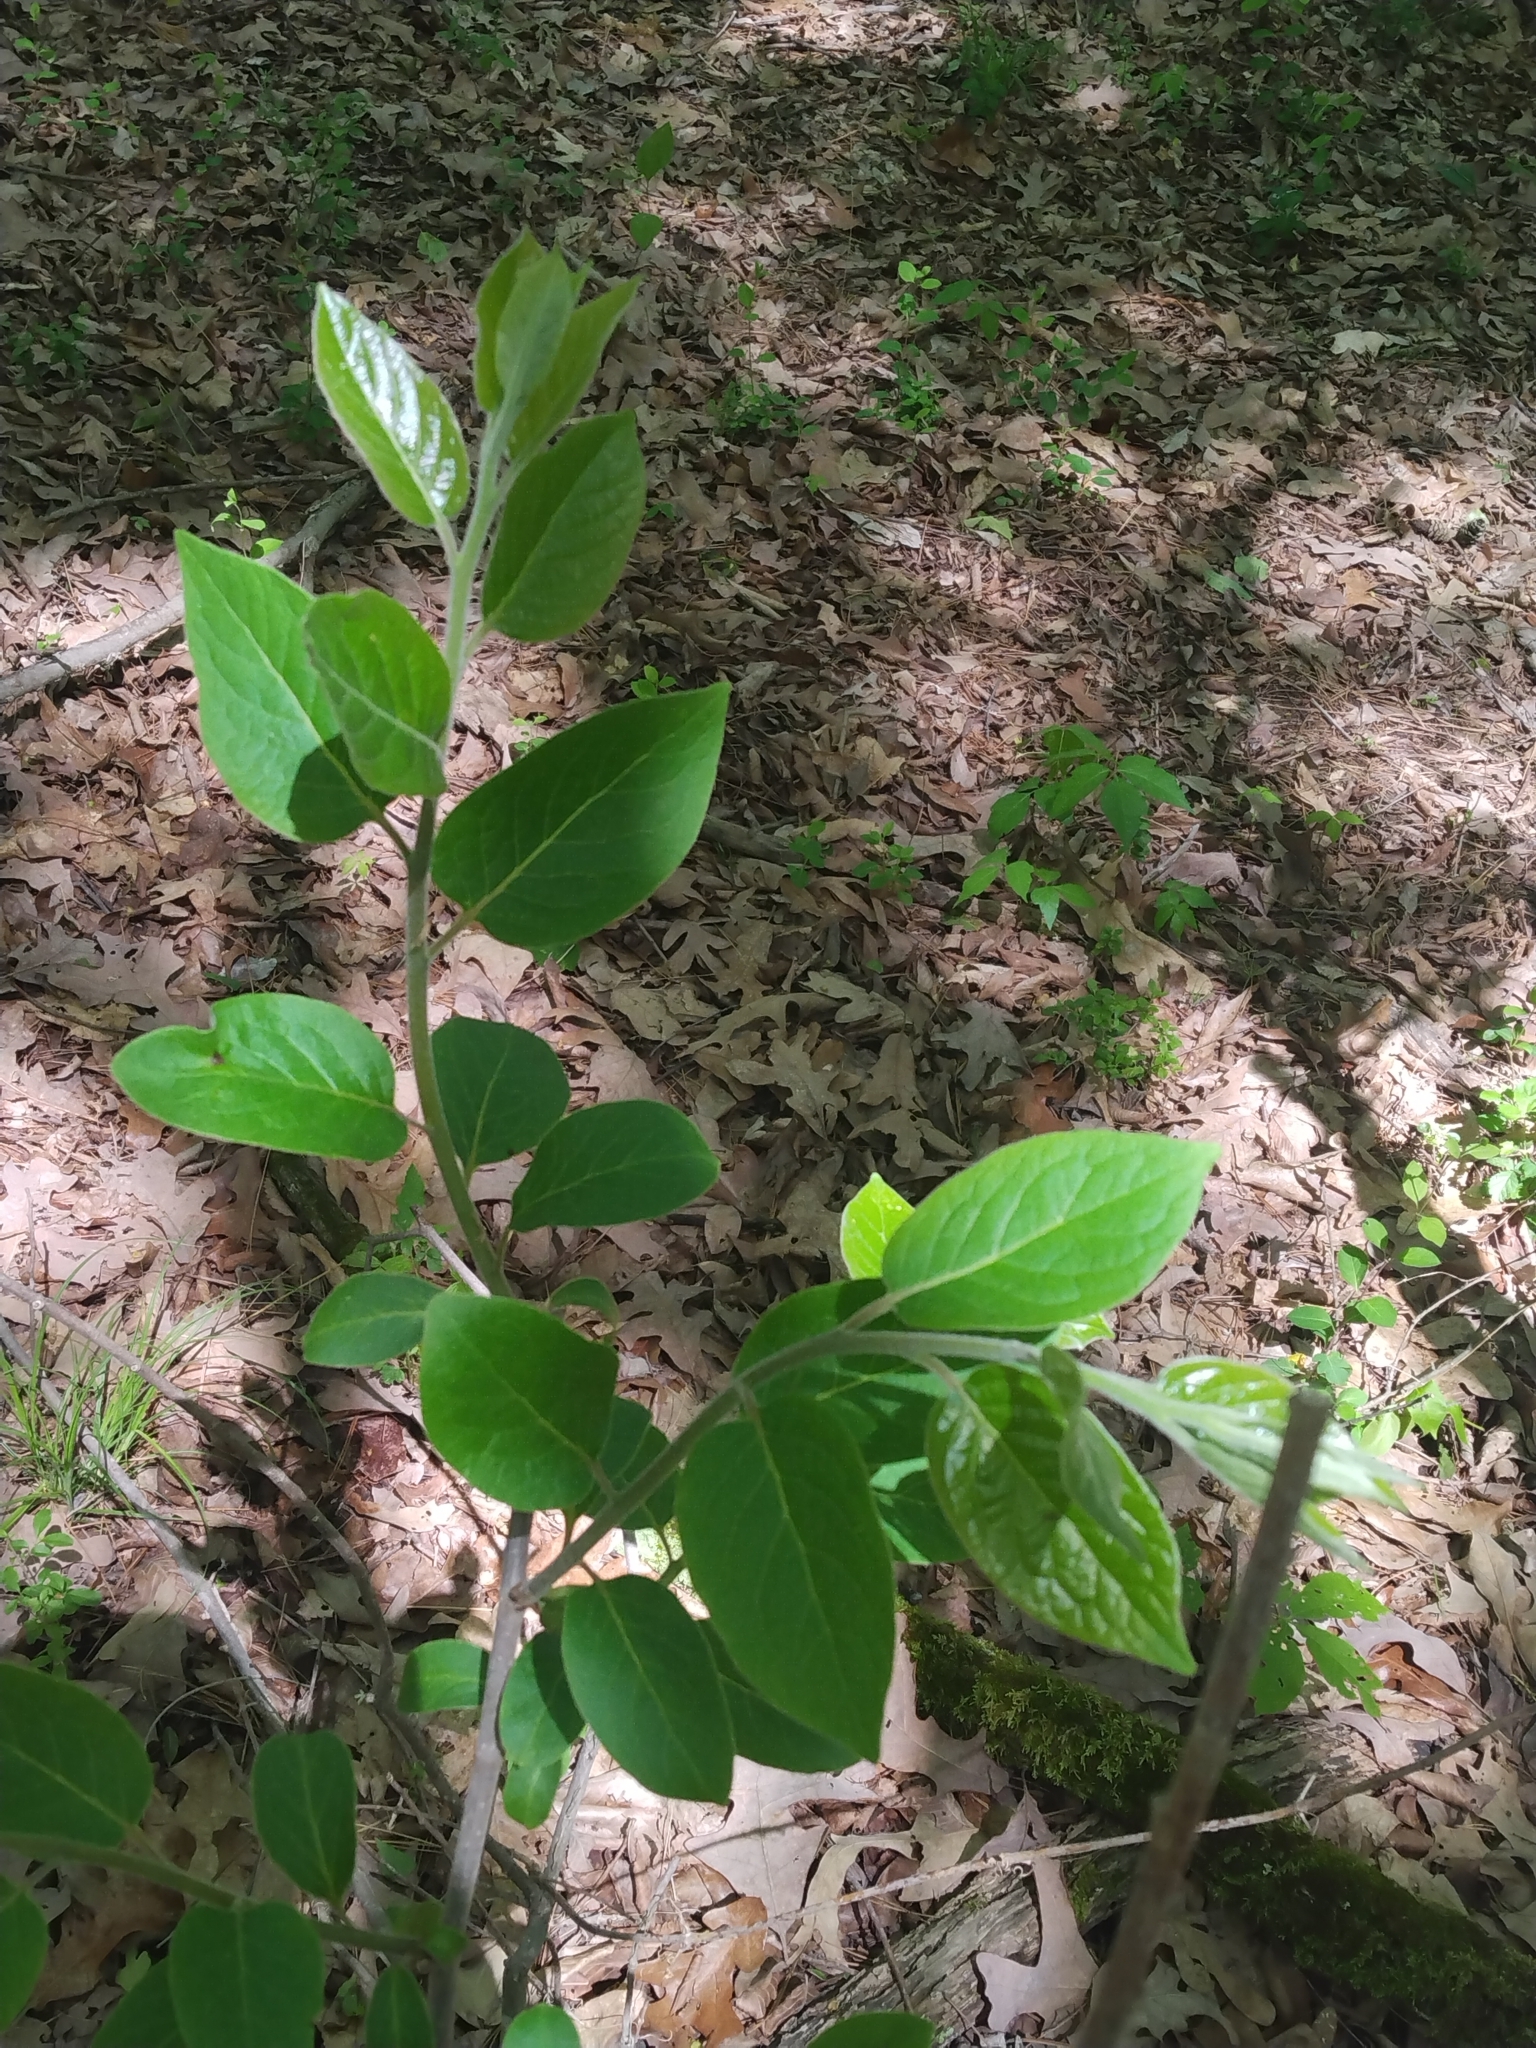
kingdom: Plantae
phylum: Tracheophyta
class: Magnoliopsida
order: Ericales
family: Ebenaceae
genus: Diospyros
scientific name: Diospyros virginiana
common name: Persimmon
